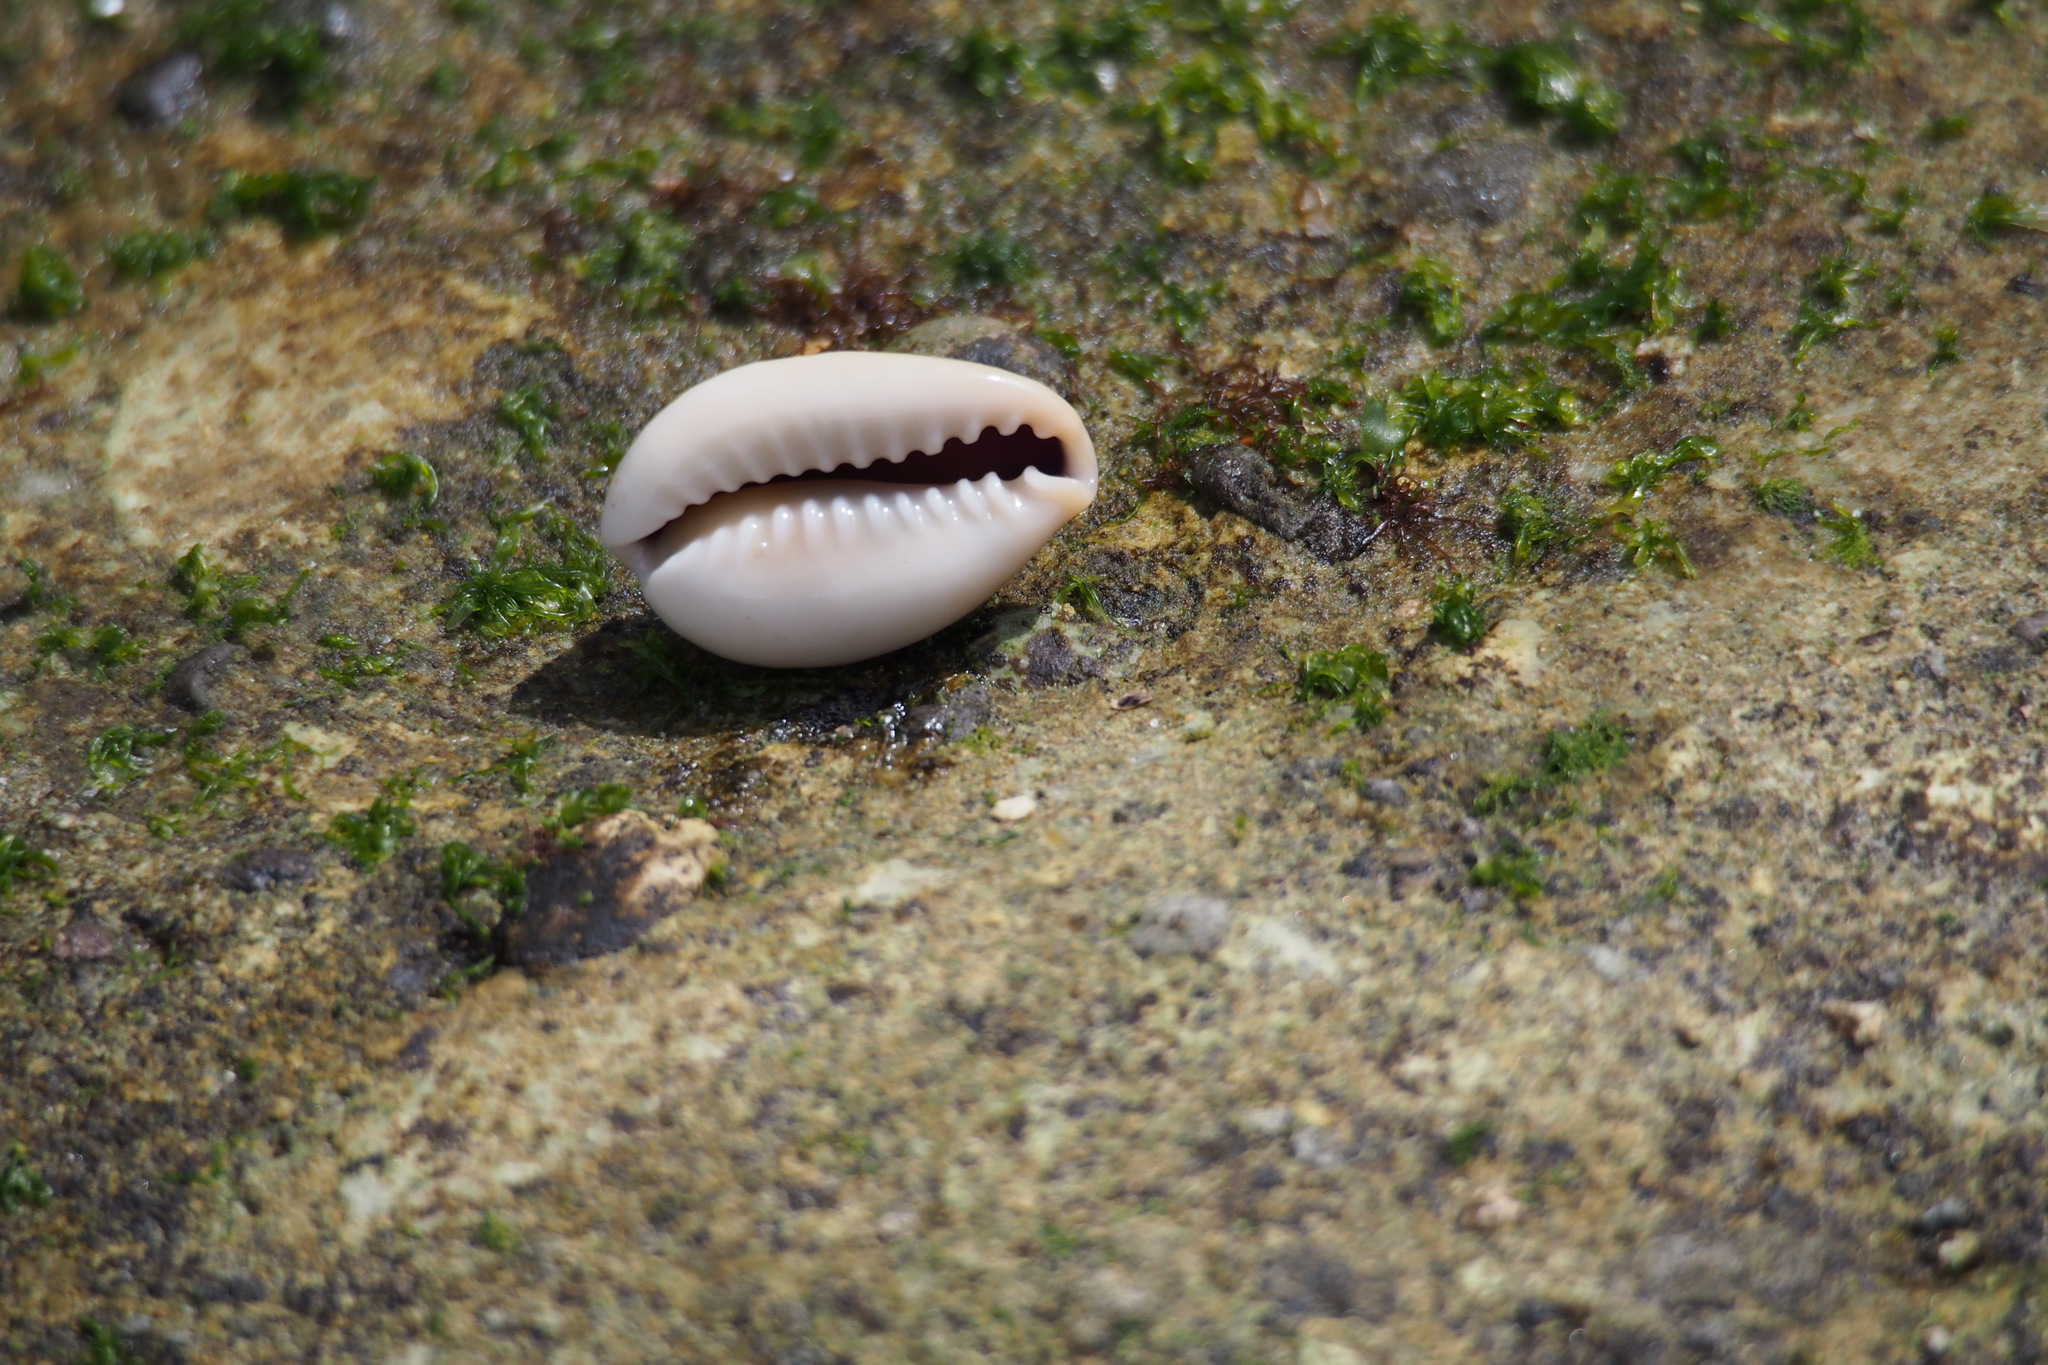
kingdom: Animalia
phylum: Mollusca
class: Gastropoda
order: Littorinimorpha
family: Cypraeidae
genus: Monetaria
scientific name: Monetaria annulus
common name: Ring cowrie
